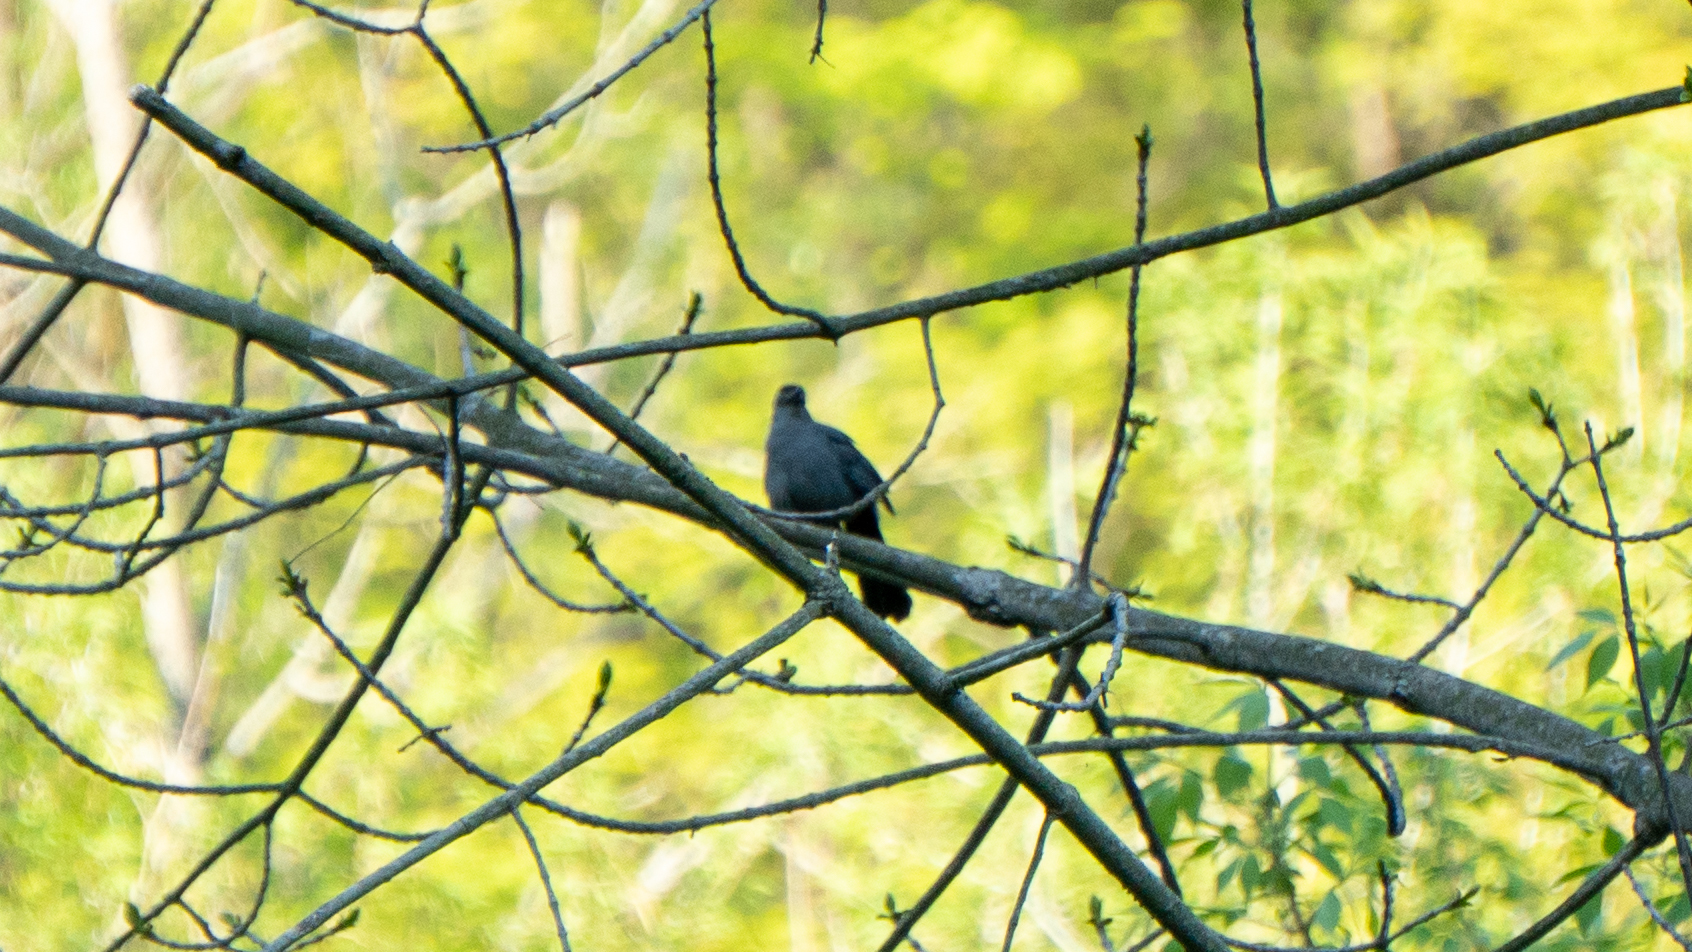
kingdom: Animalia
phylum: Chordata
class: Aves
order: Passeriformes
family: Mimidae
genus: Dumetella
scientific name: Dumetella carolinensis
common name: Gray catbird
